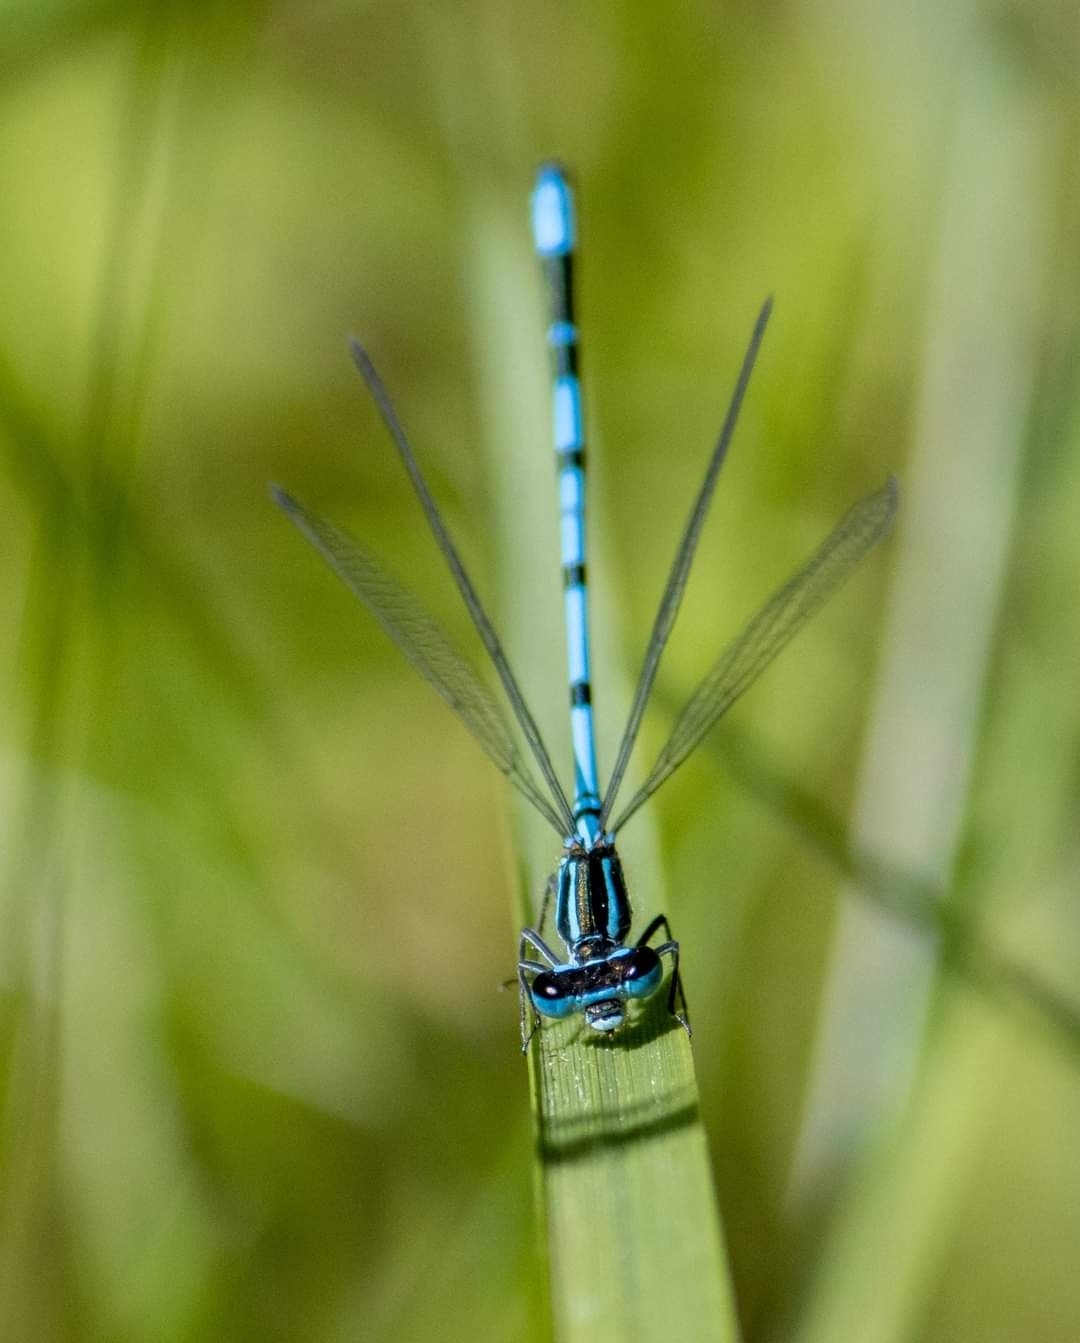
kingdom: Animalia
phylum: Arthropoda
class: Insecta
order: Odonata
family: Coenagrionidae
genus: Coenagrion
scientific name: Coenagrion puella
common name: Azure damselfly
